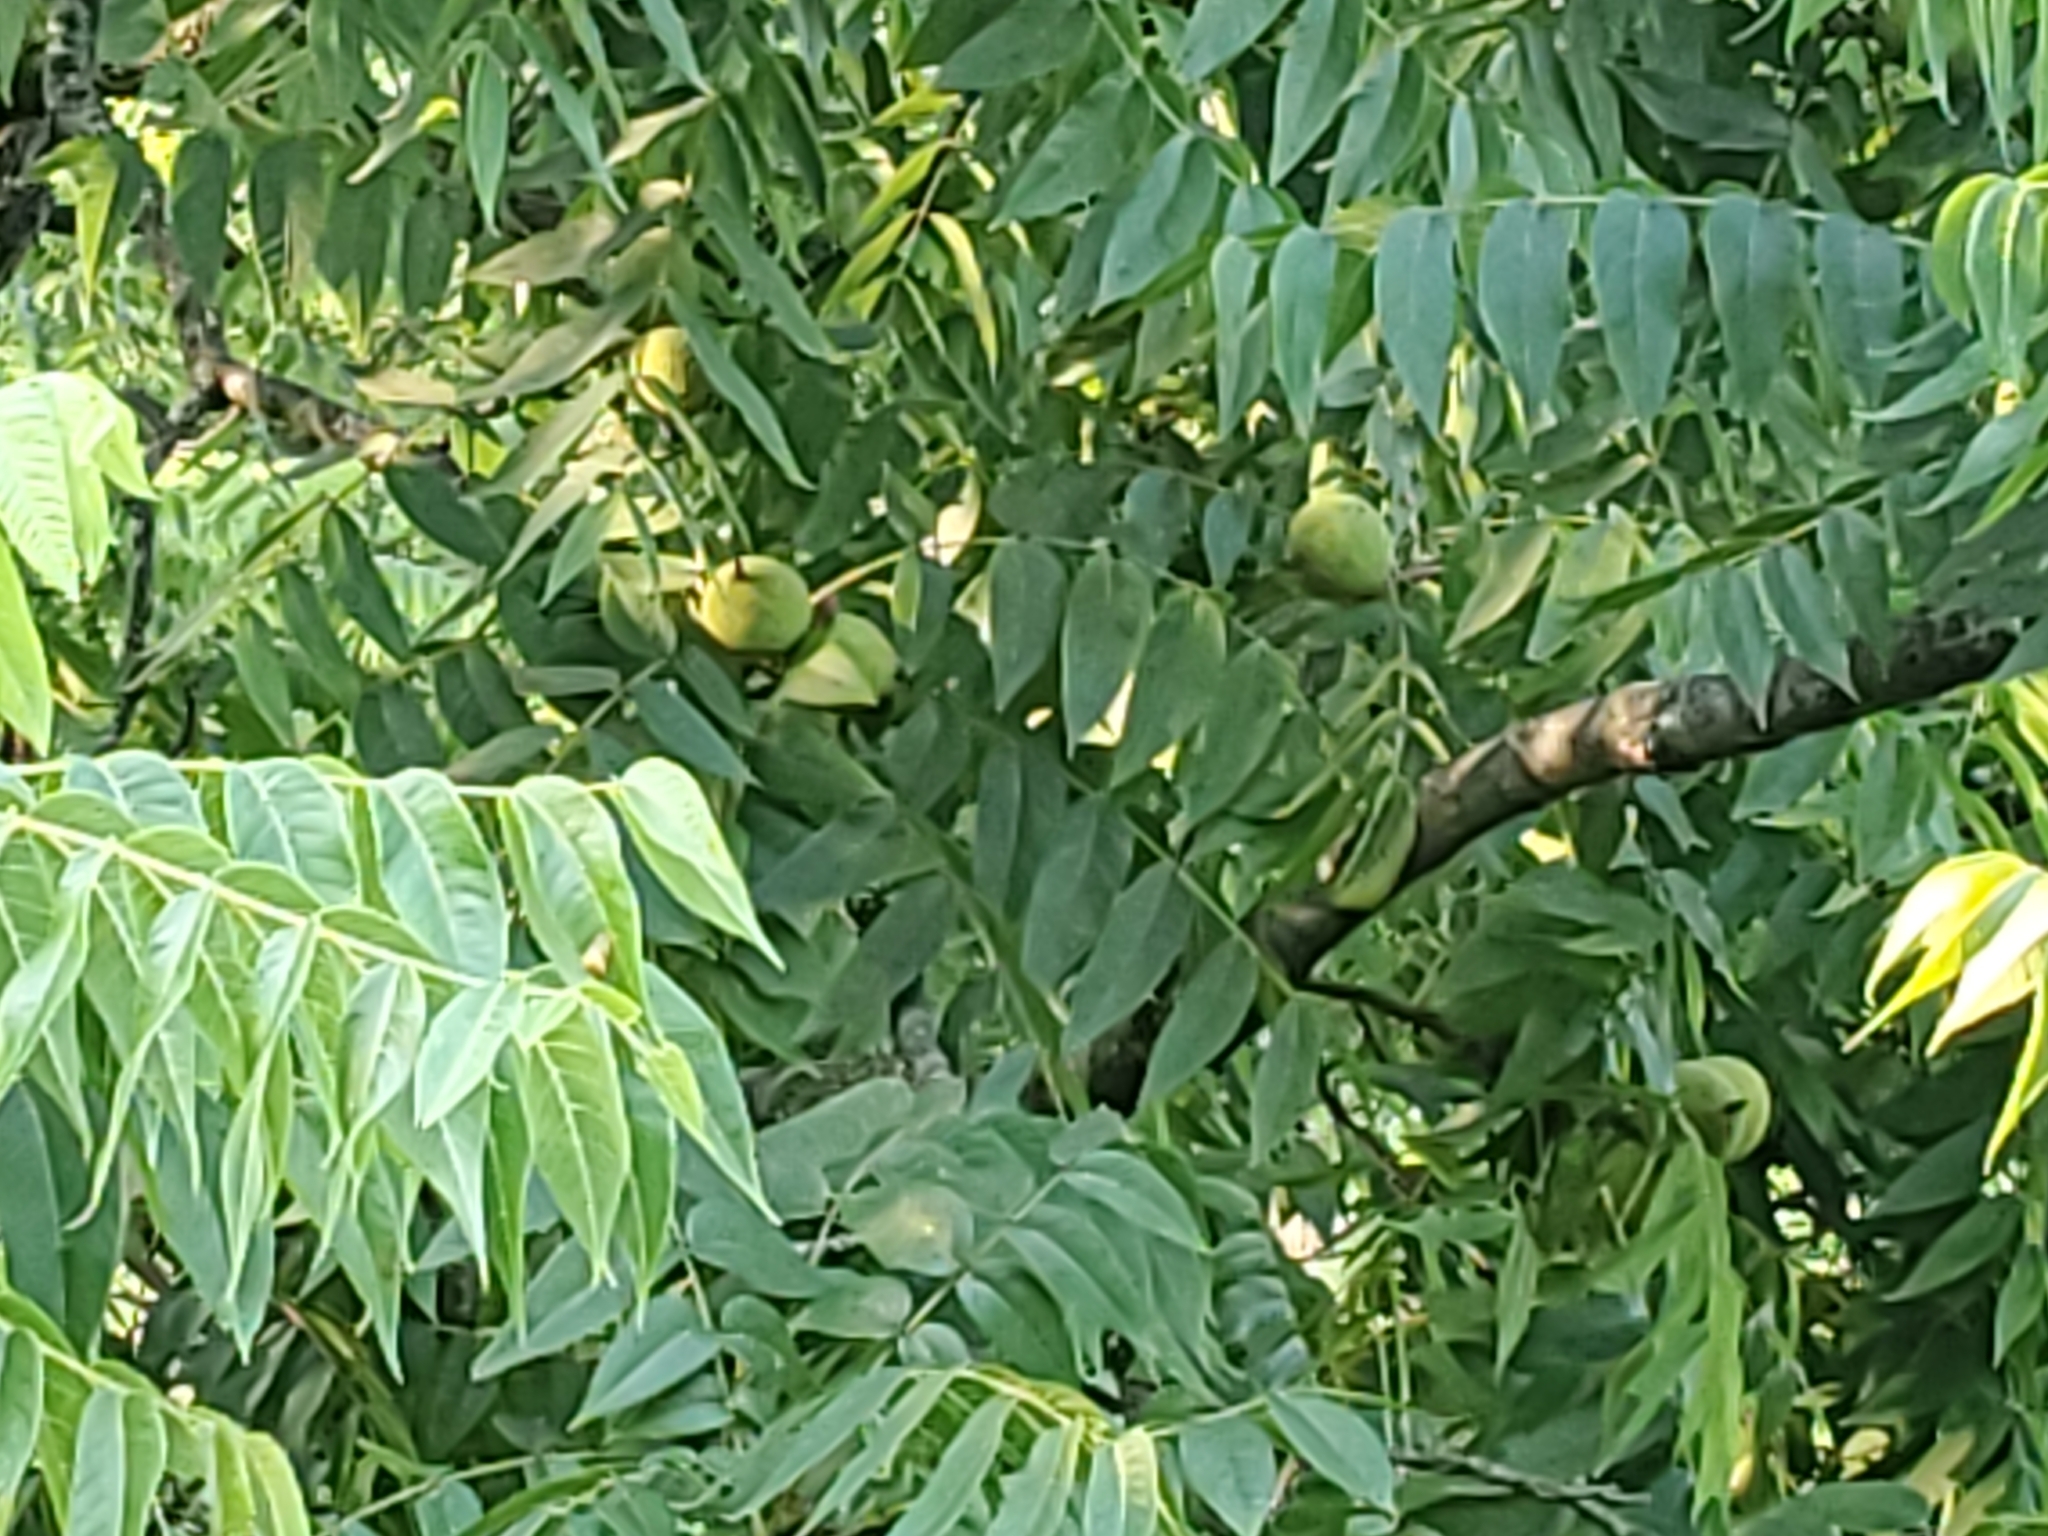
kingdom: Plantae
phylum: Tracheophyta
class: Magnoliopsida
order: Fagales
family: Juglandaceae
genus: Juglans
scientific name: Juglans nigra
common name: Black walnut
